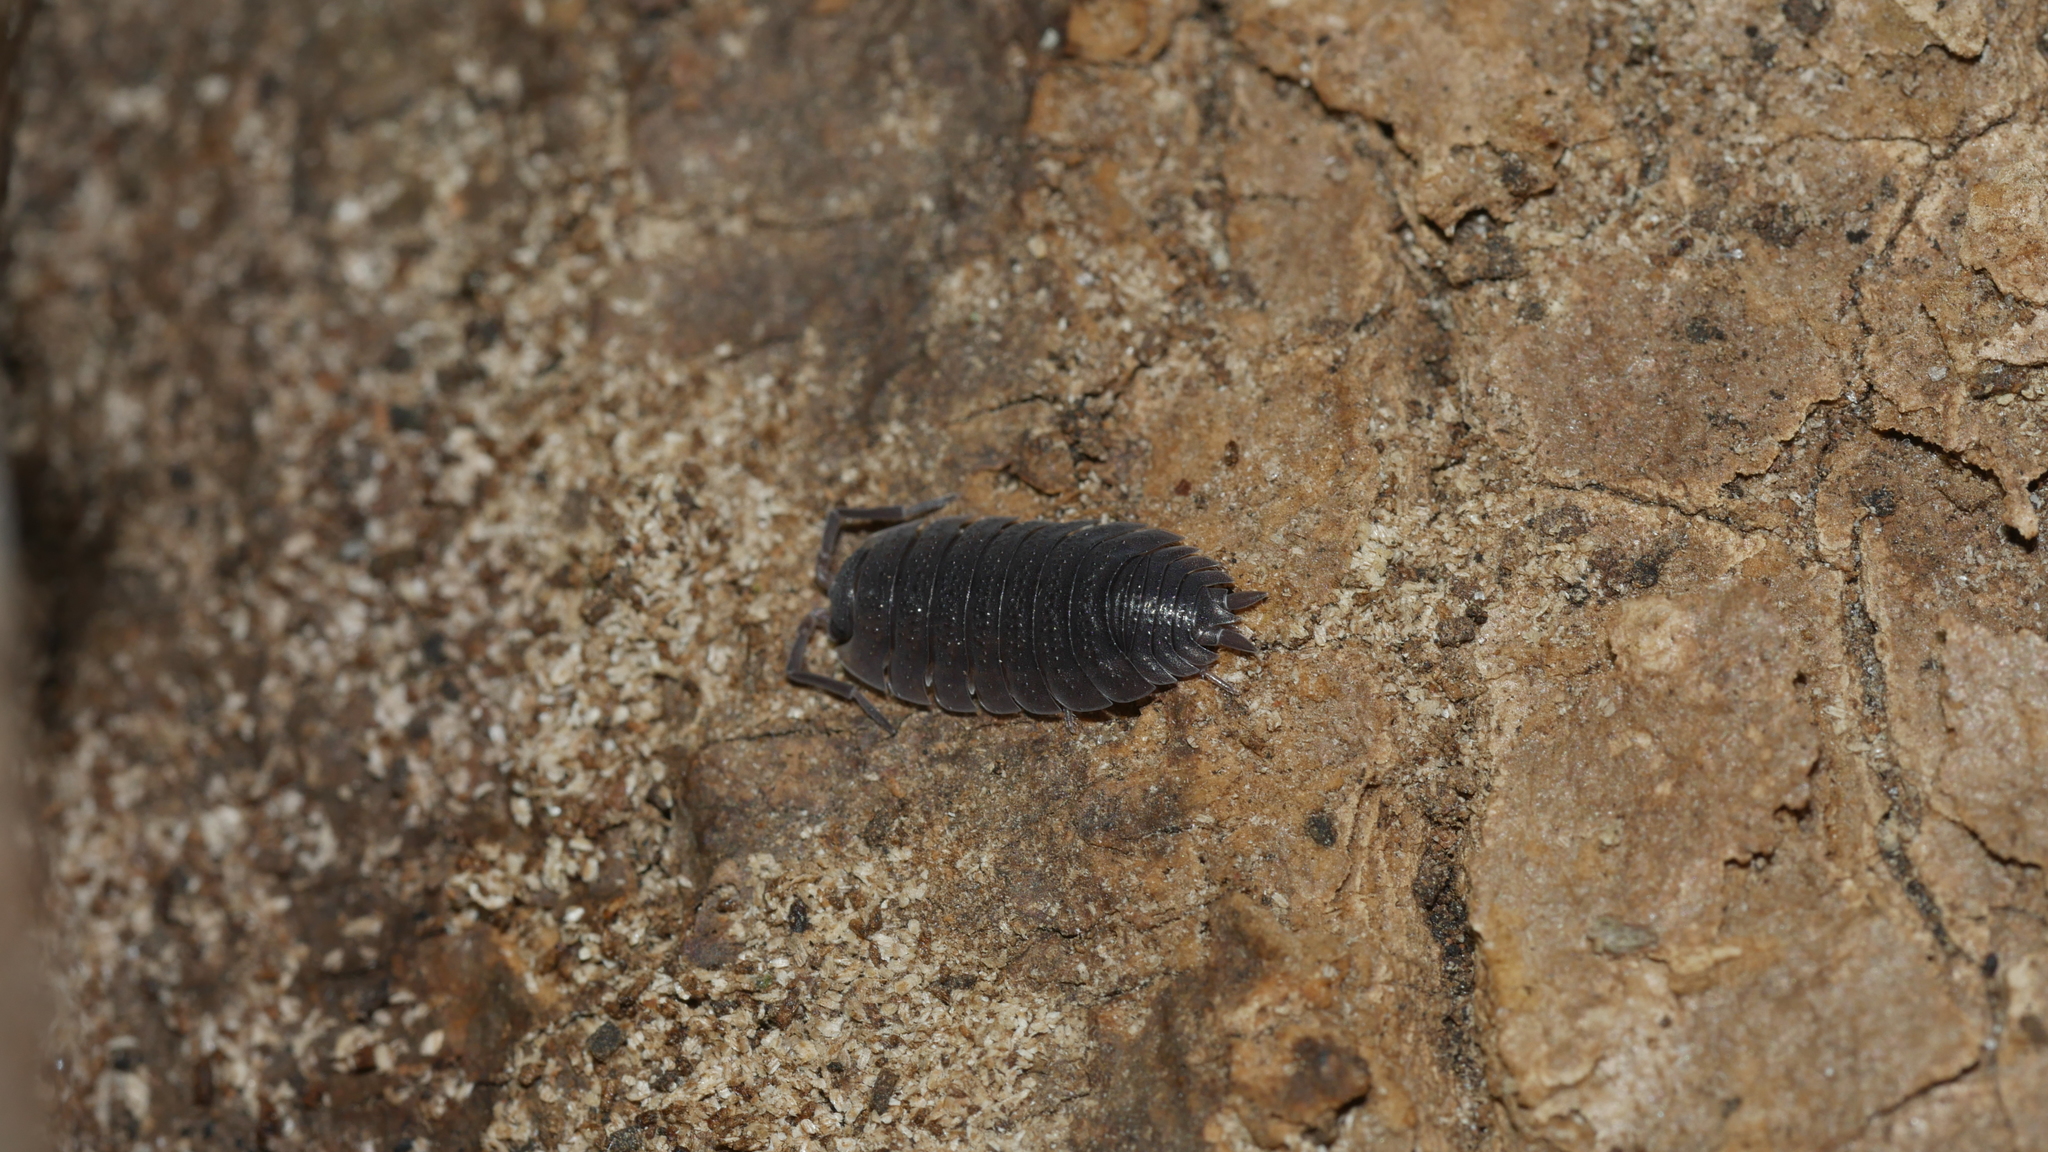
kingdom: Animalia
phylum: Arthropoda
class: Malacostraca
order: Isopoda
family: Porcellionidae
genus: Porcellio
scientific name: Porcellio scaber
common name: Common rough woodlouse
